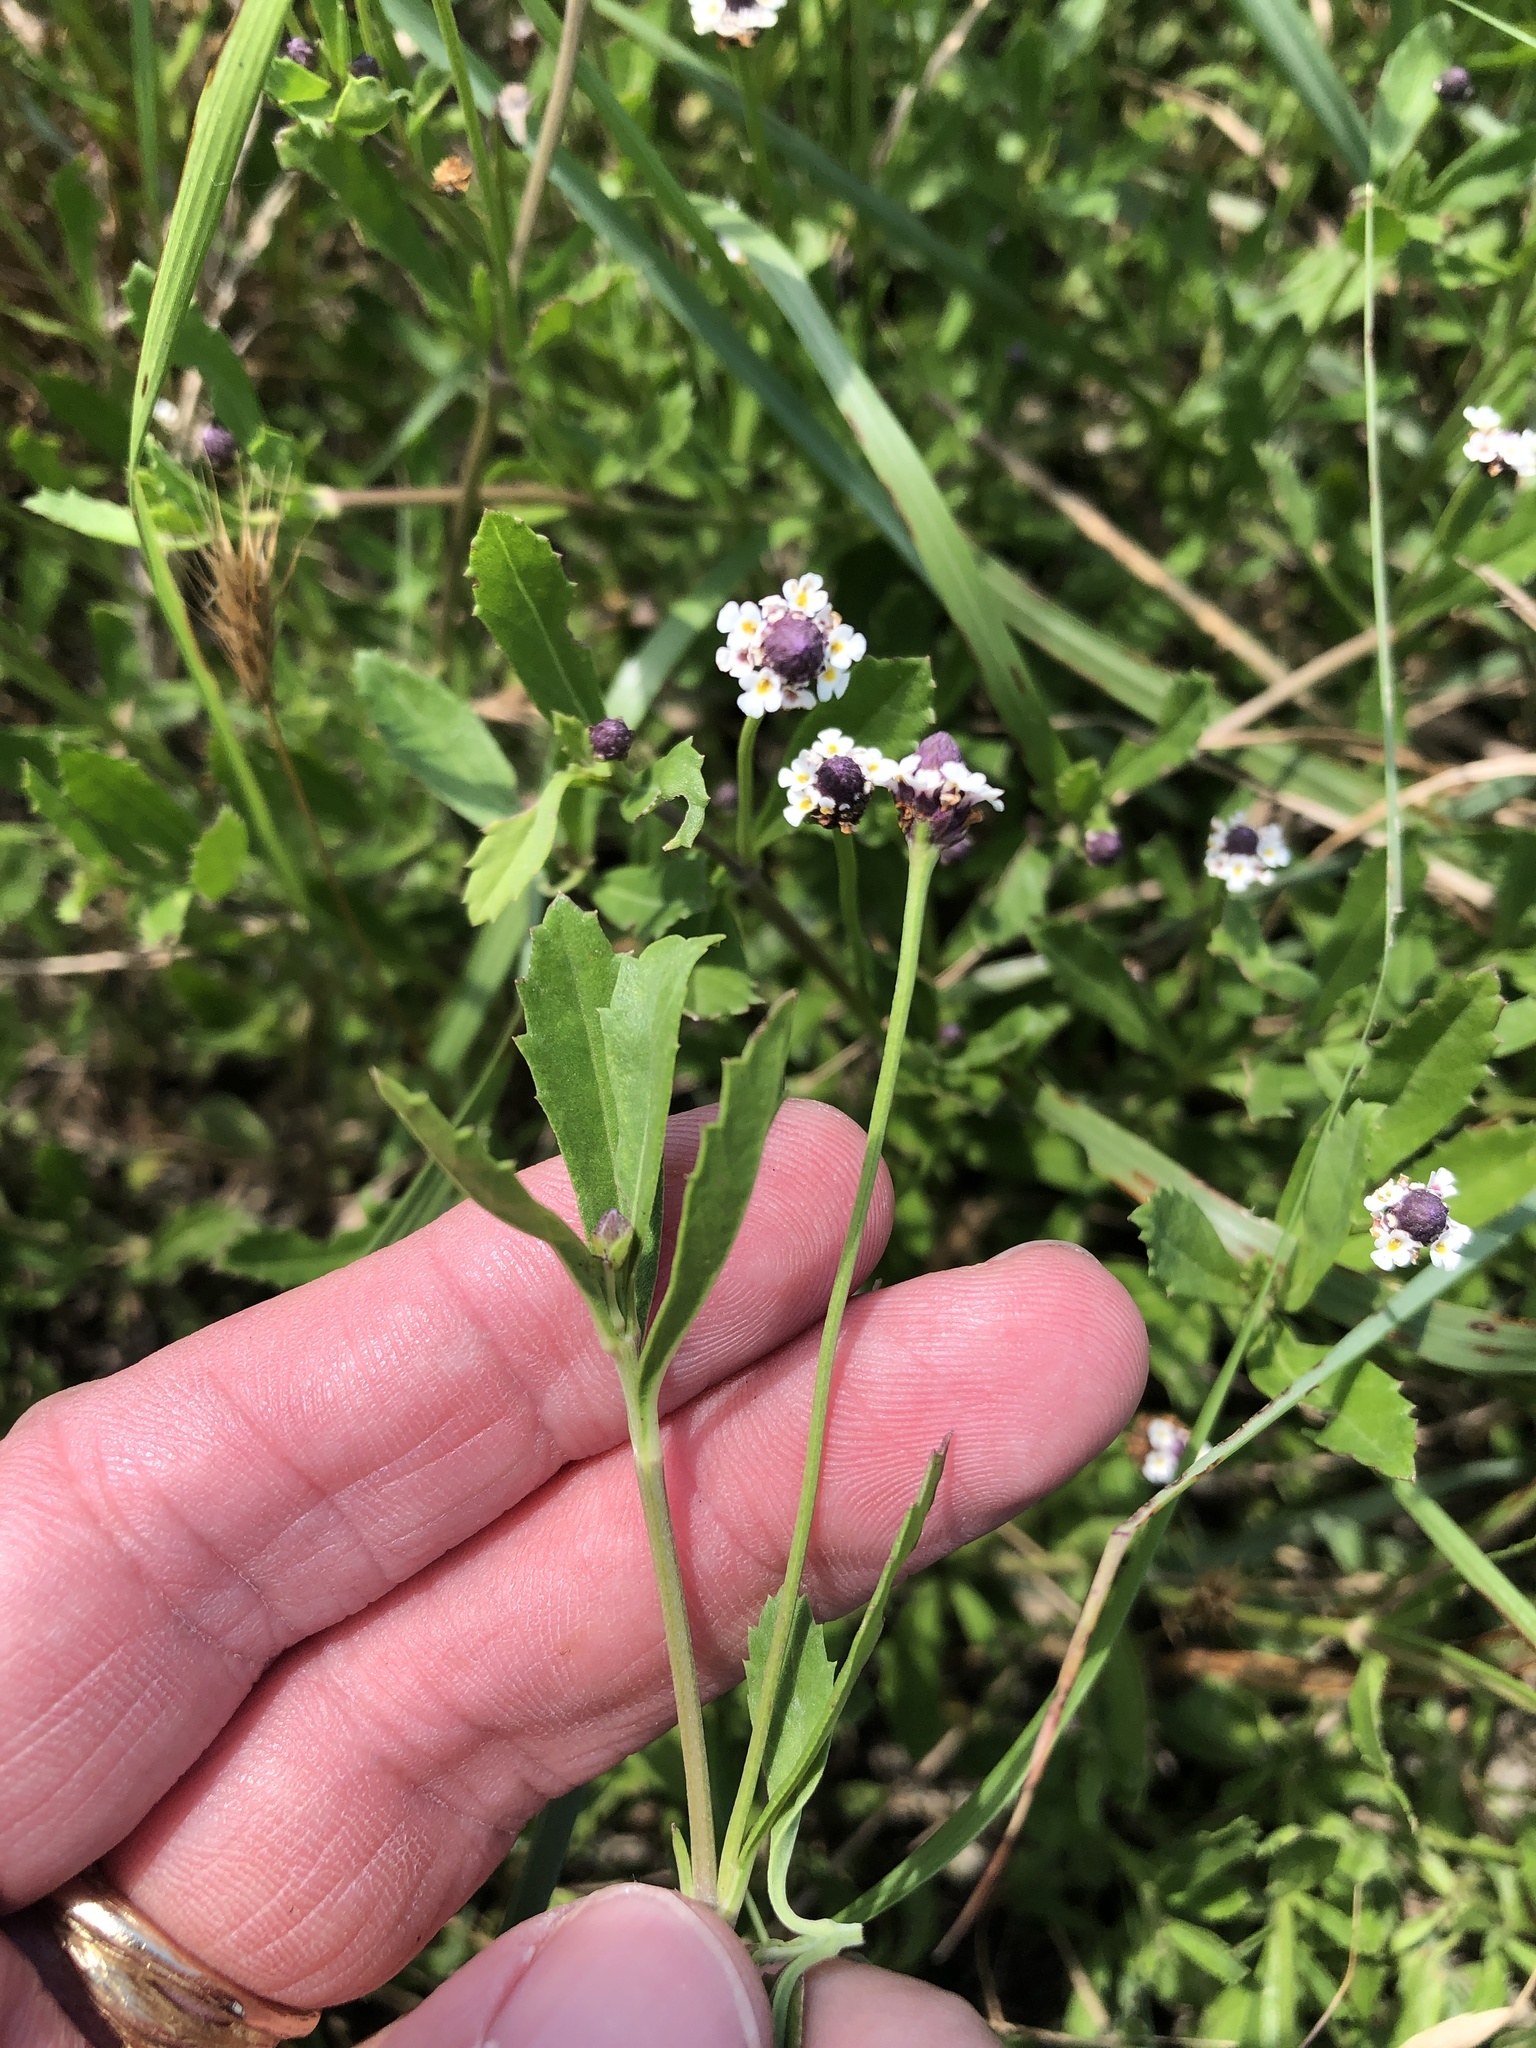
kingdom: Plantae
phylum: Tracheophyta
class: Magnoliopsida
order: Lamiales
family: Verbenaceae
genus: Phyla
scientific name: Phyla nodiflora
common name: Frogfruit
